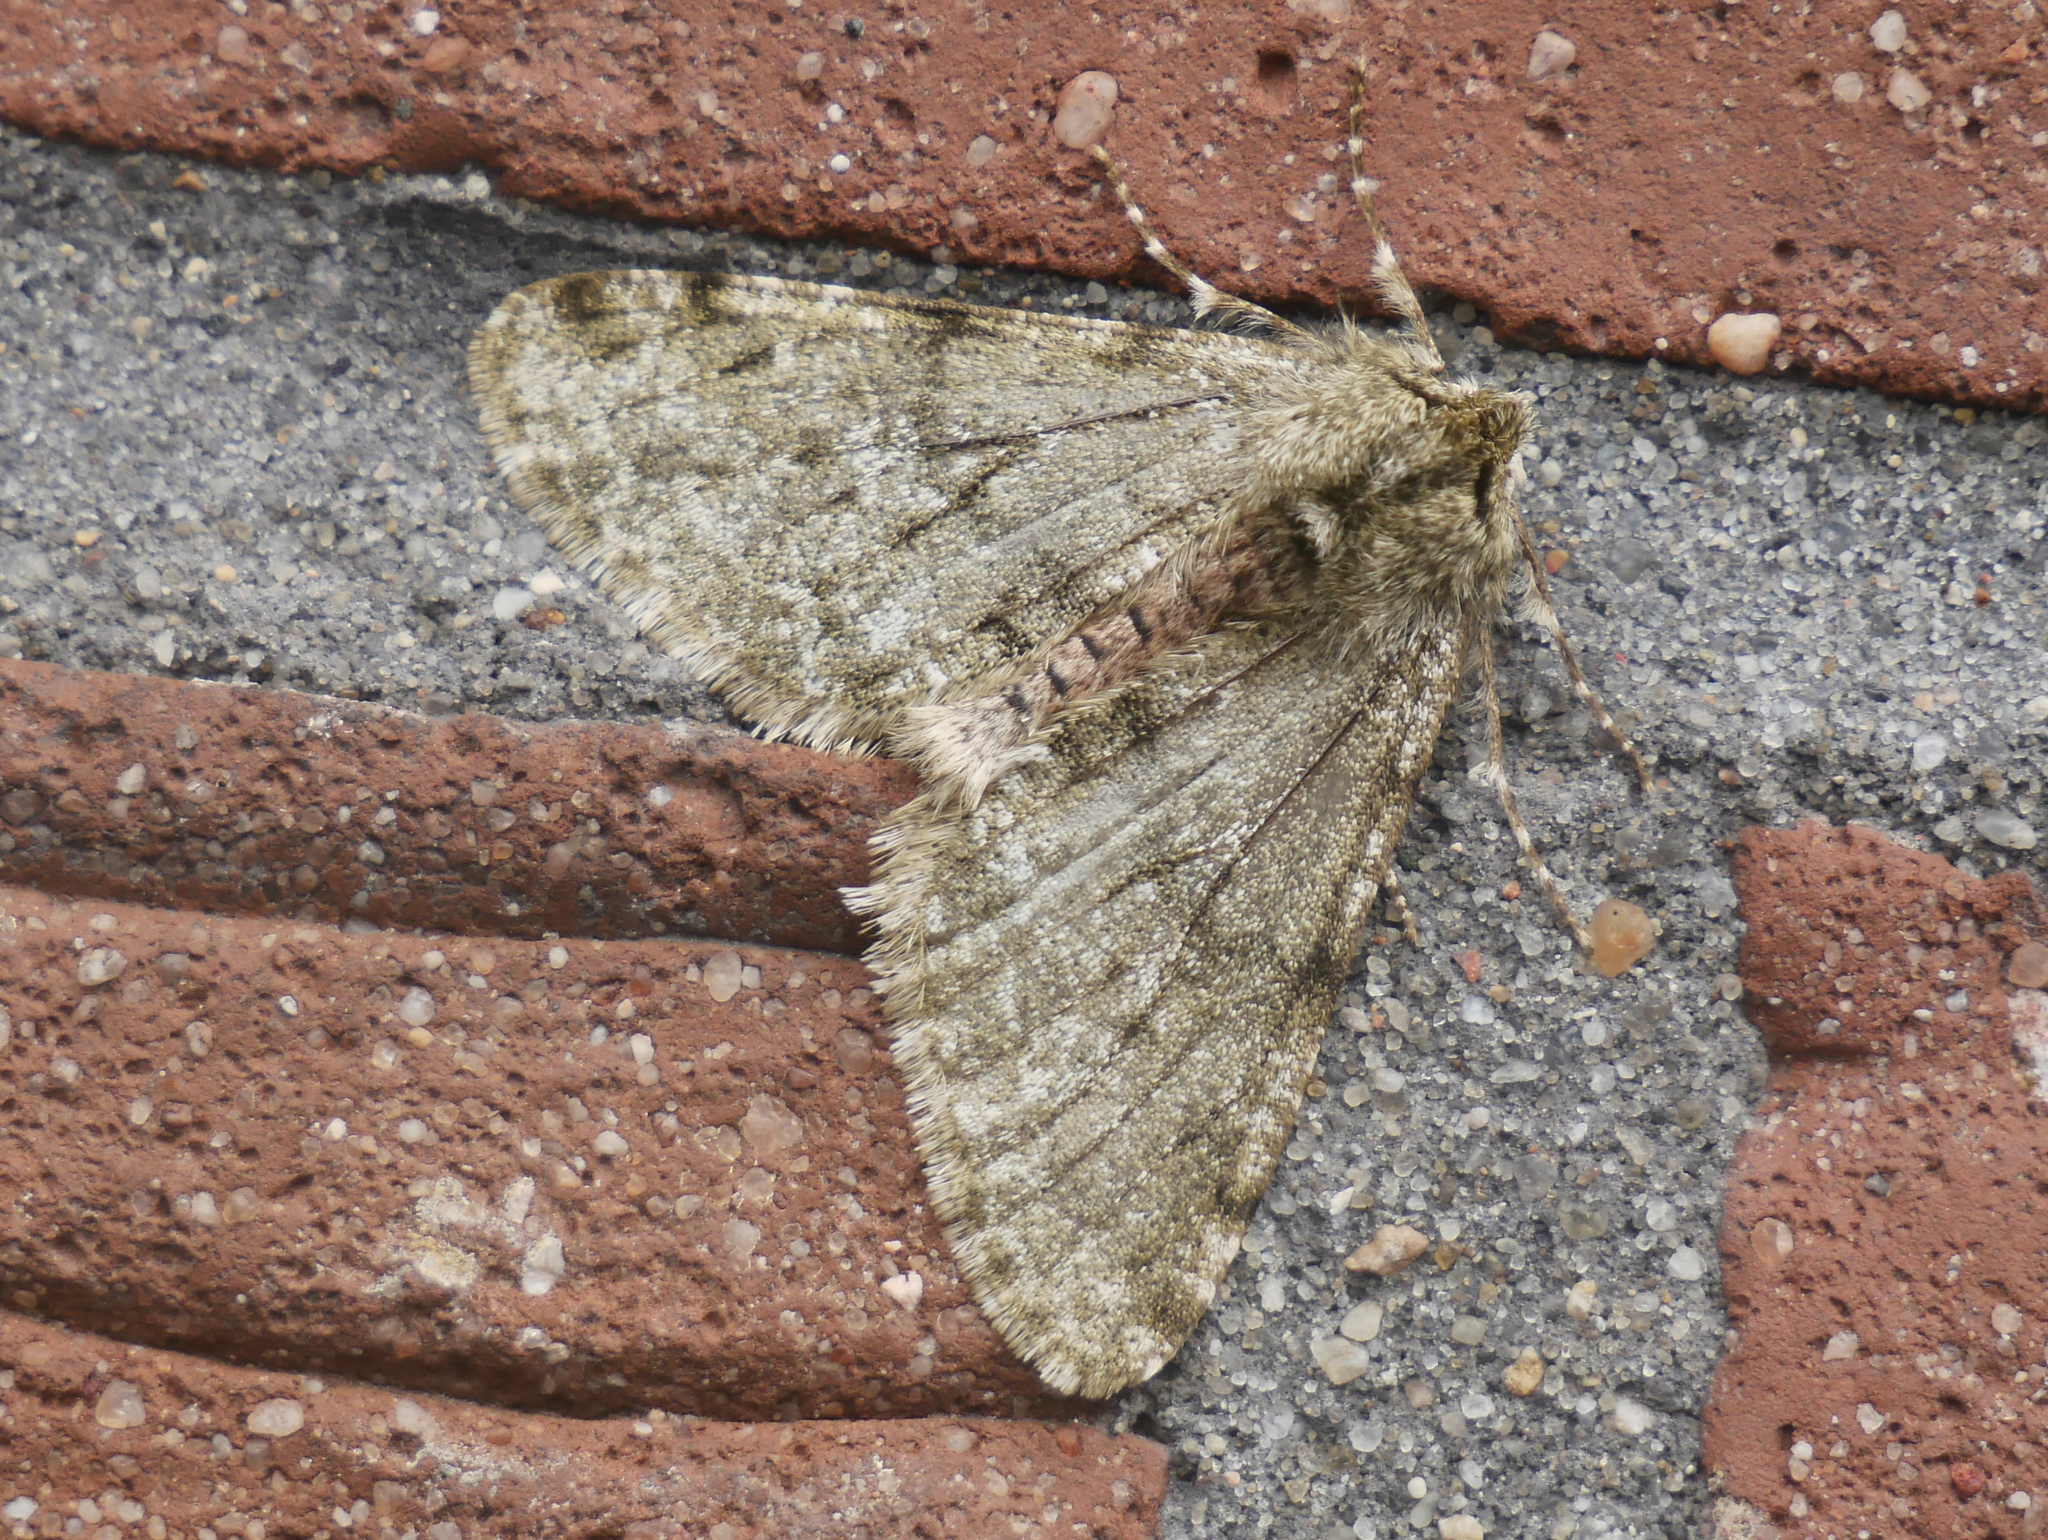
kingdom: Animalia
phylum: Arthropoda
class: Insecta
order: Lepidoptera
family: Geometridae
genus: Phigalia
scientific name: Phigalia pilosaria
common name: Pale brindled beauty
